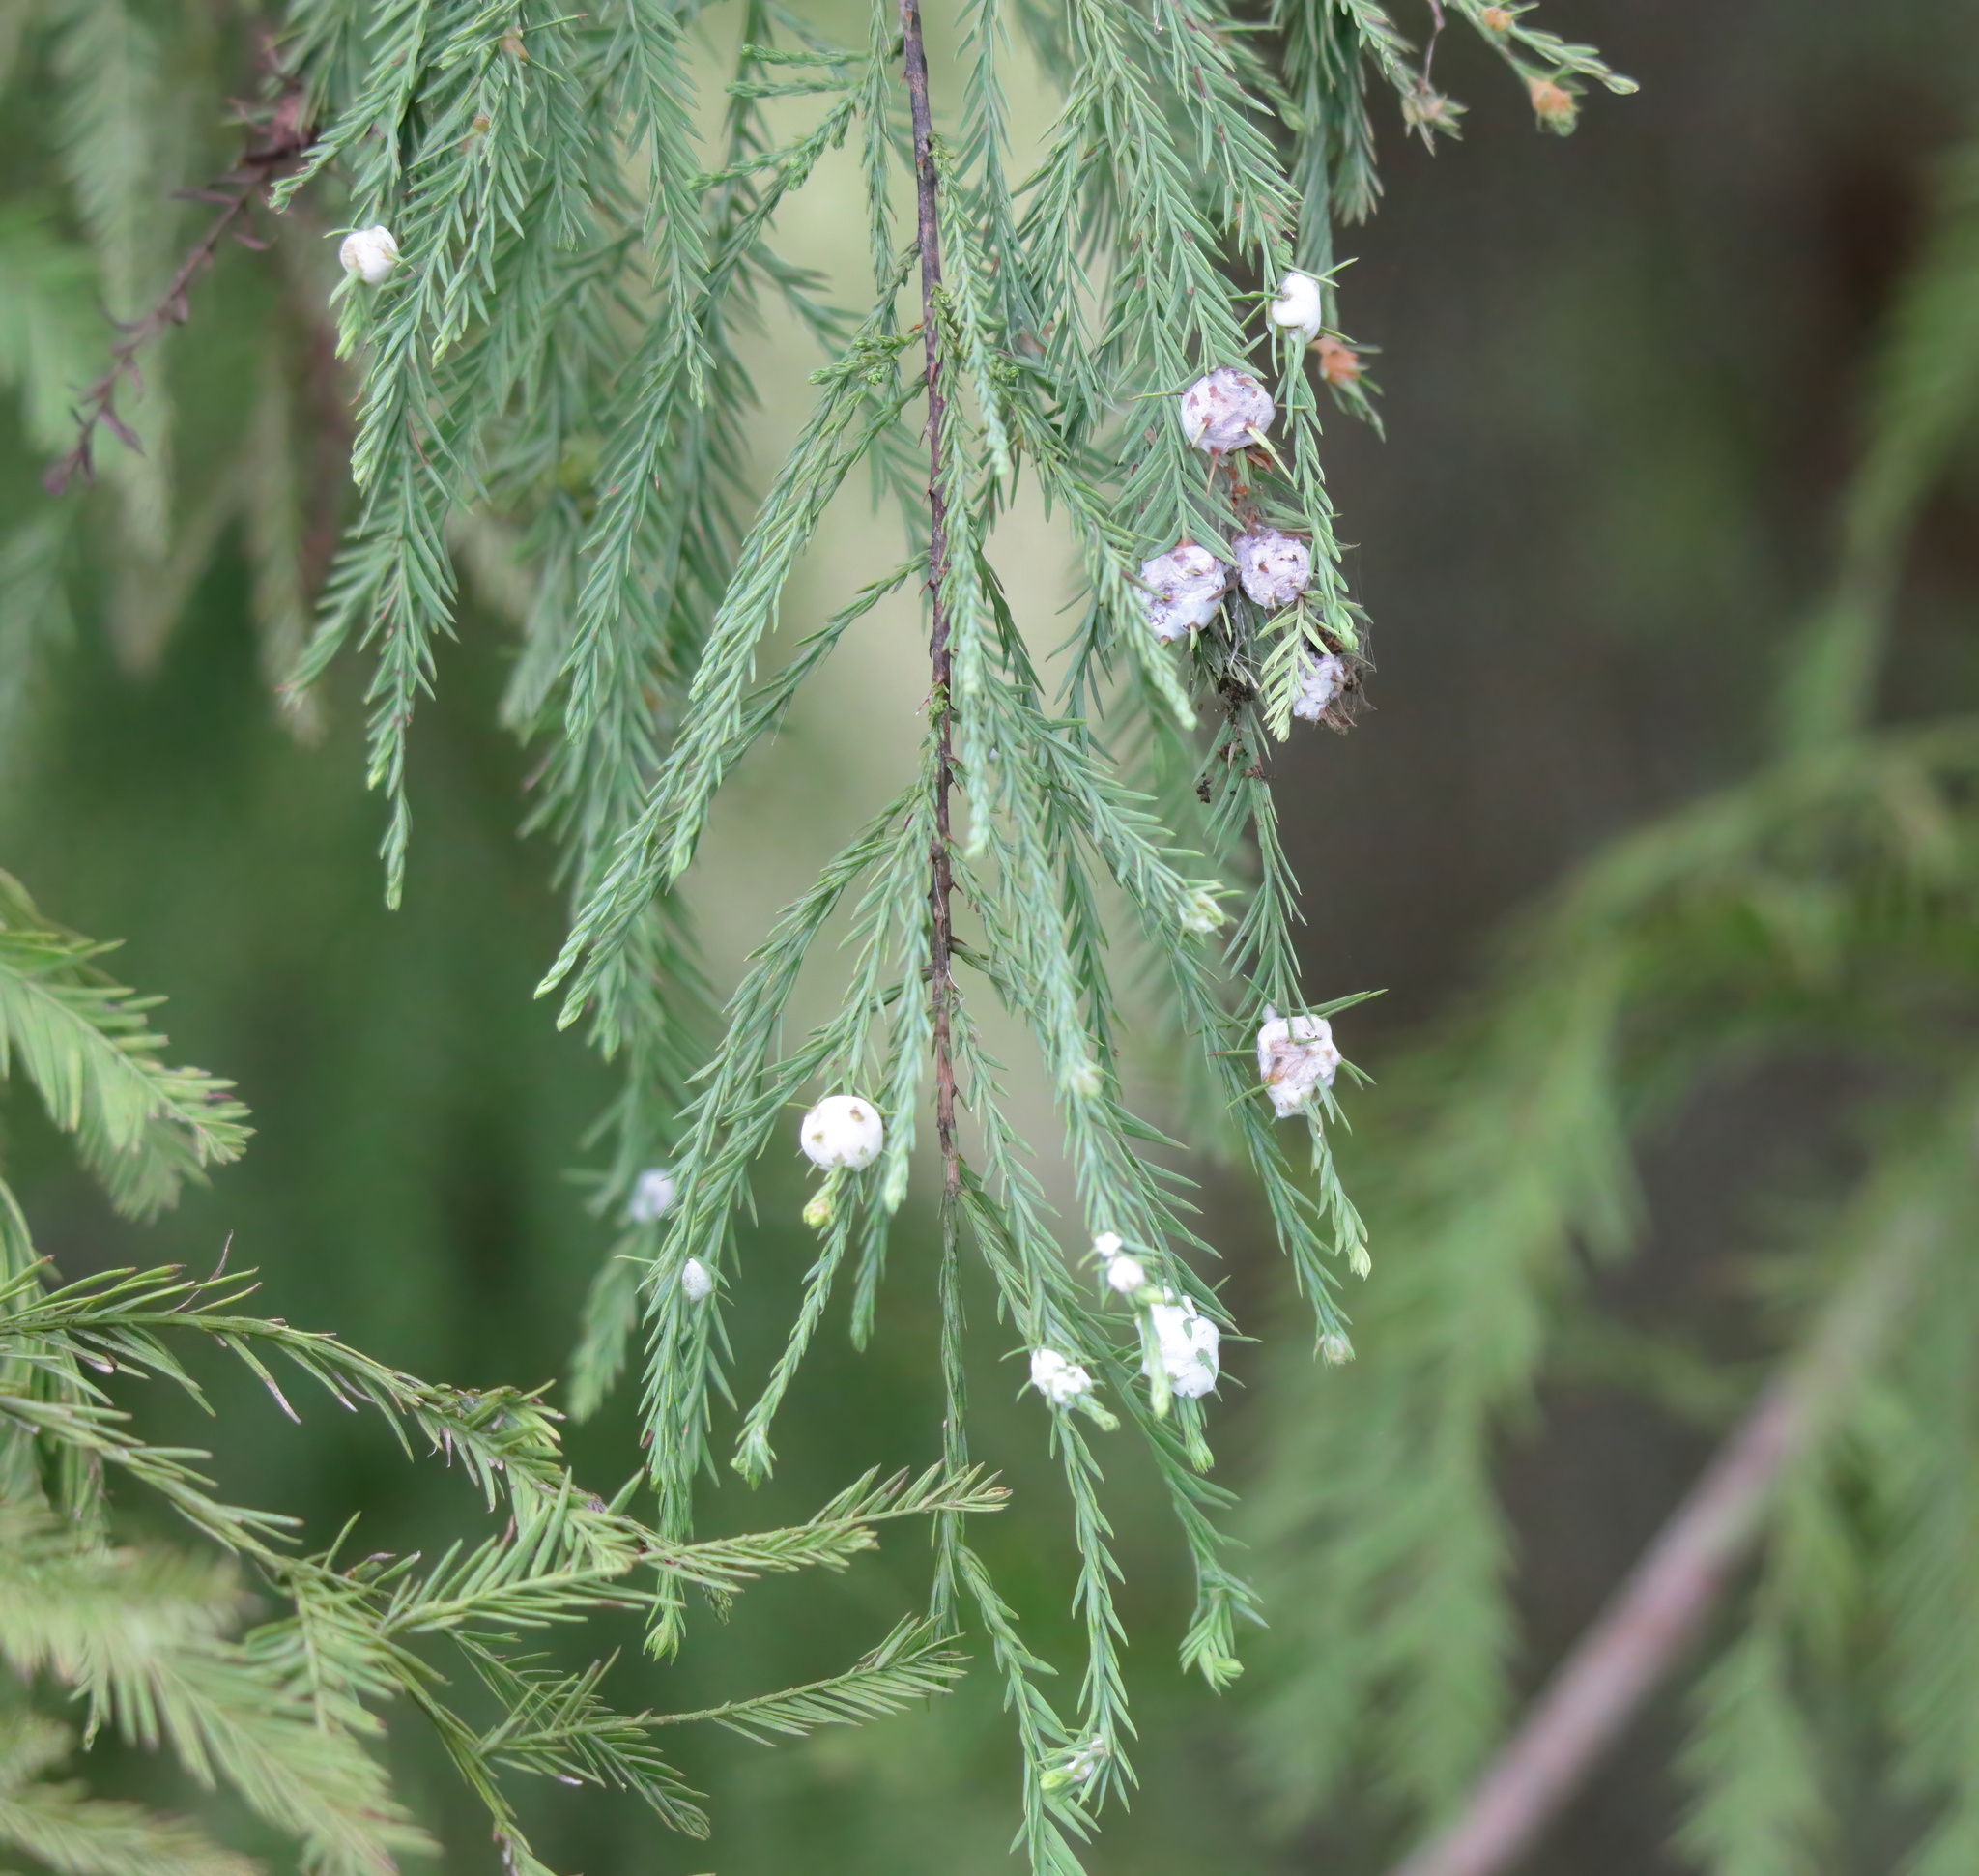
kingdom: Plantae
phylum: Tracheophyta
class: Pinopsida
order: Pinales
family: Cupressaceae
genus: Taxodium
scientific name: Taxodium distichum
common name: Bald cypress
